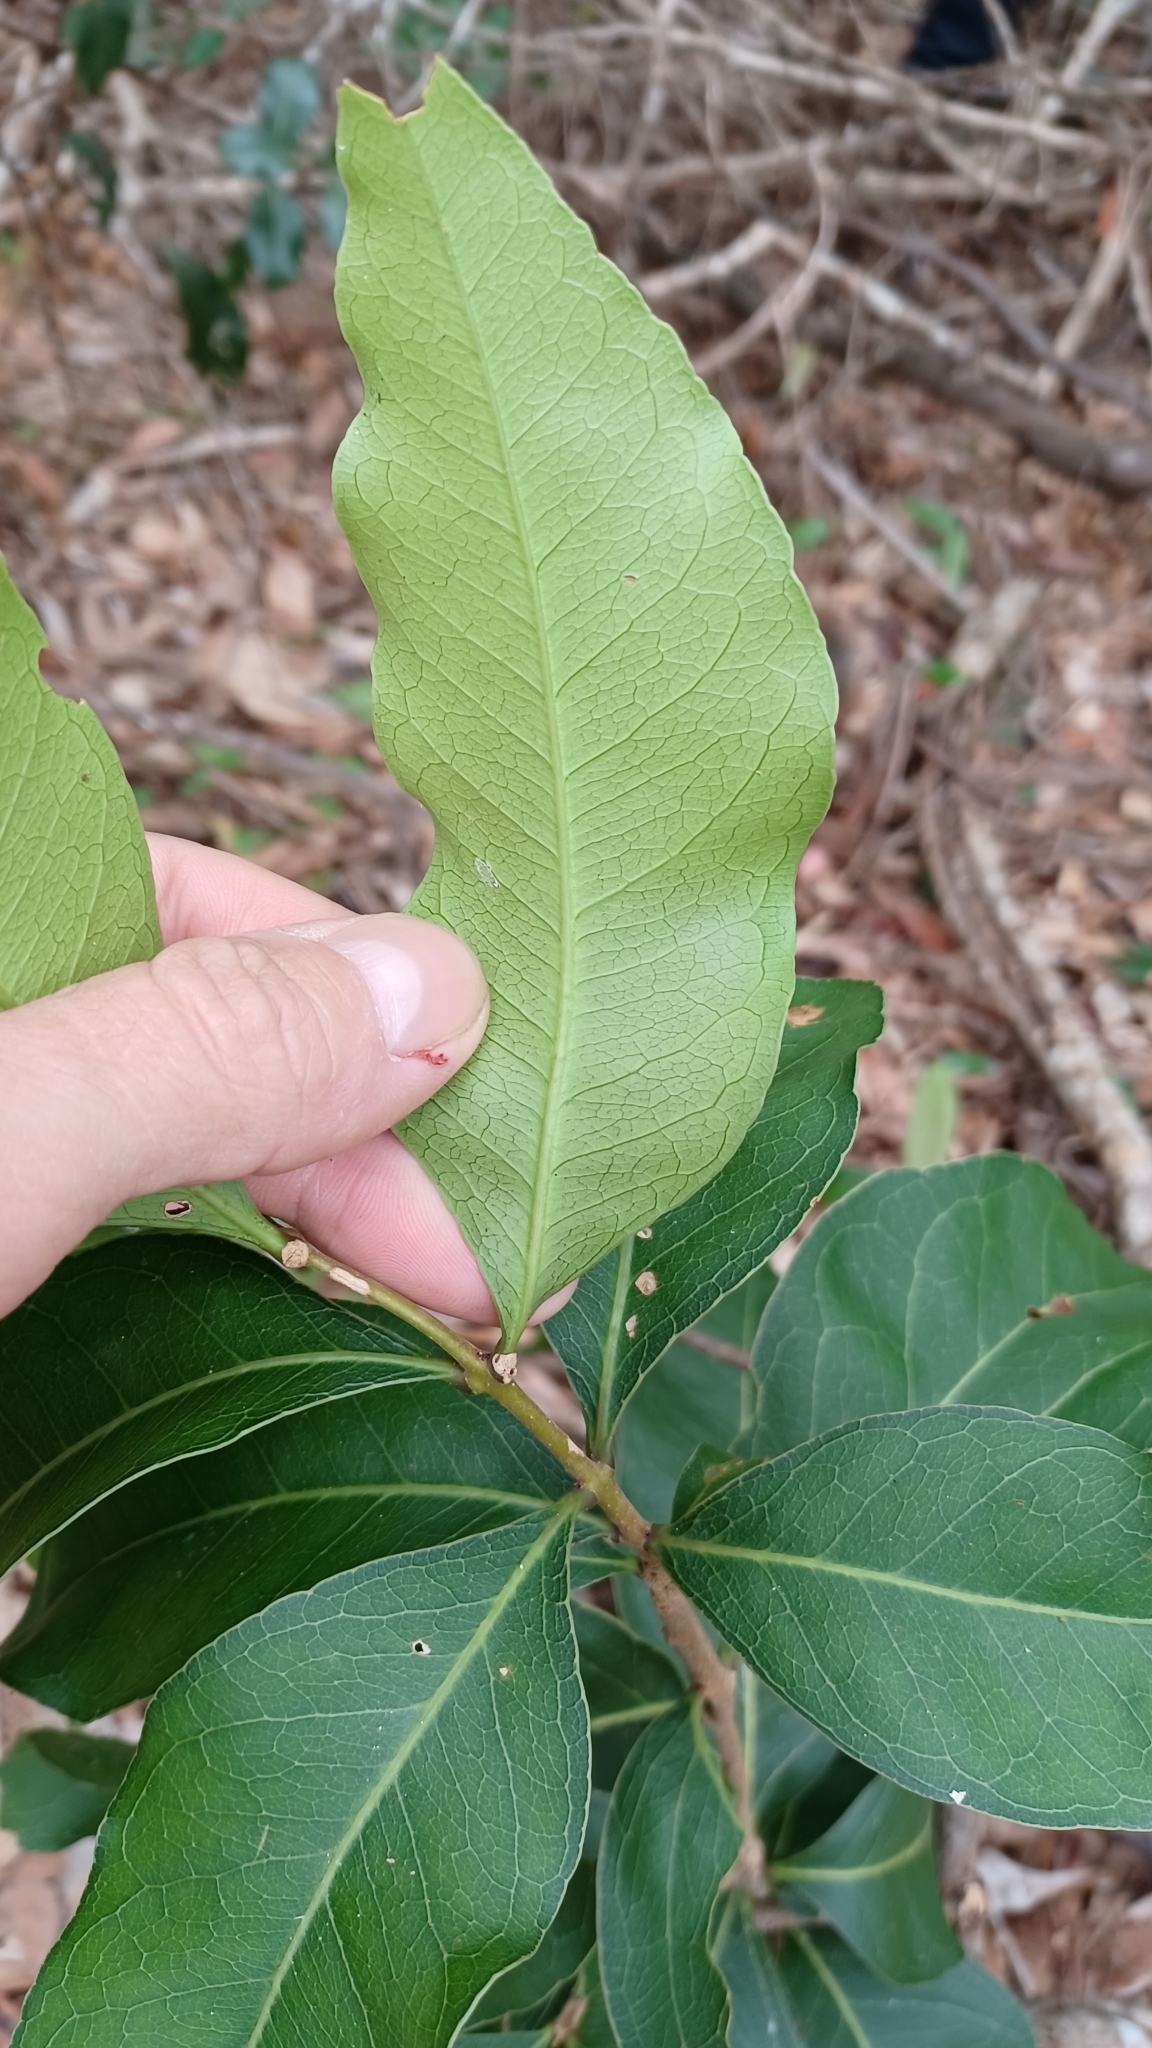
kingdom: Plantae
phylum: Tracheophyta
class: Magnoliopsida
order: Lamiales
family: Oleaceae
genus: Notelaea
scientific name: Notelaea longifolia
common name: Large mock olive
